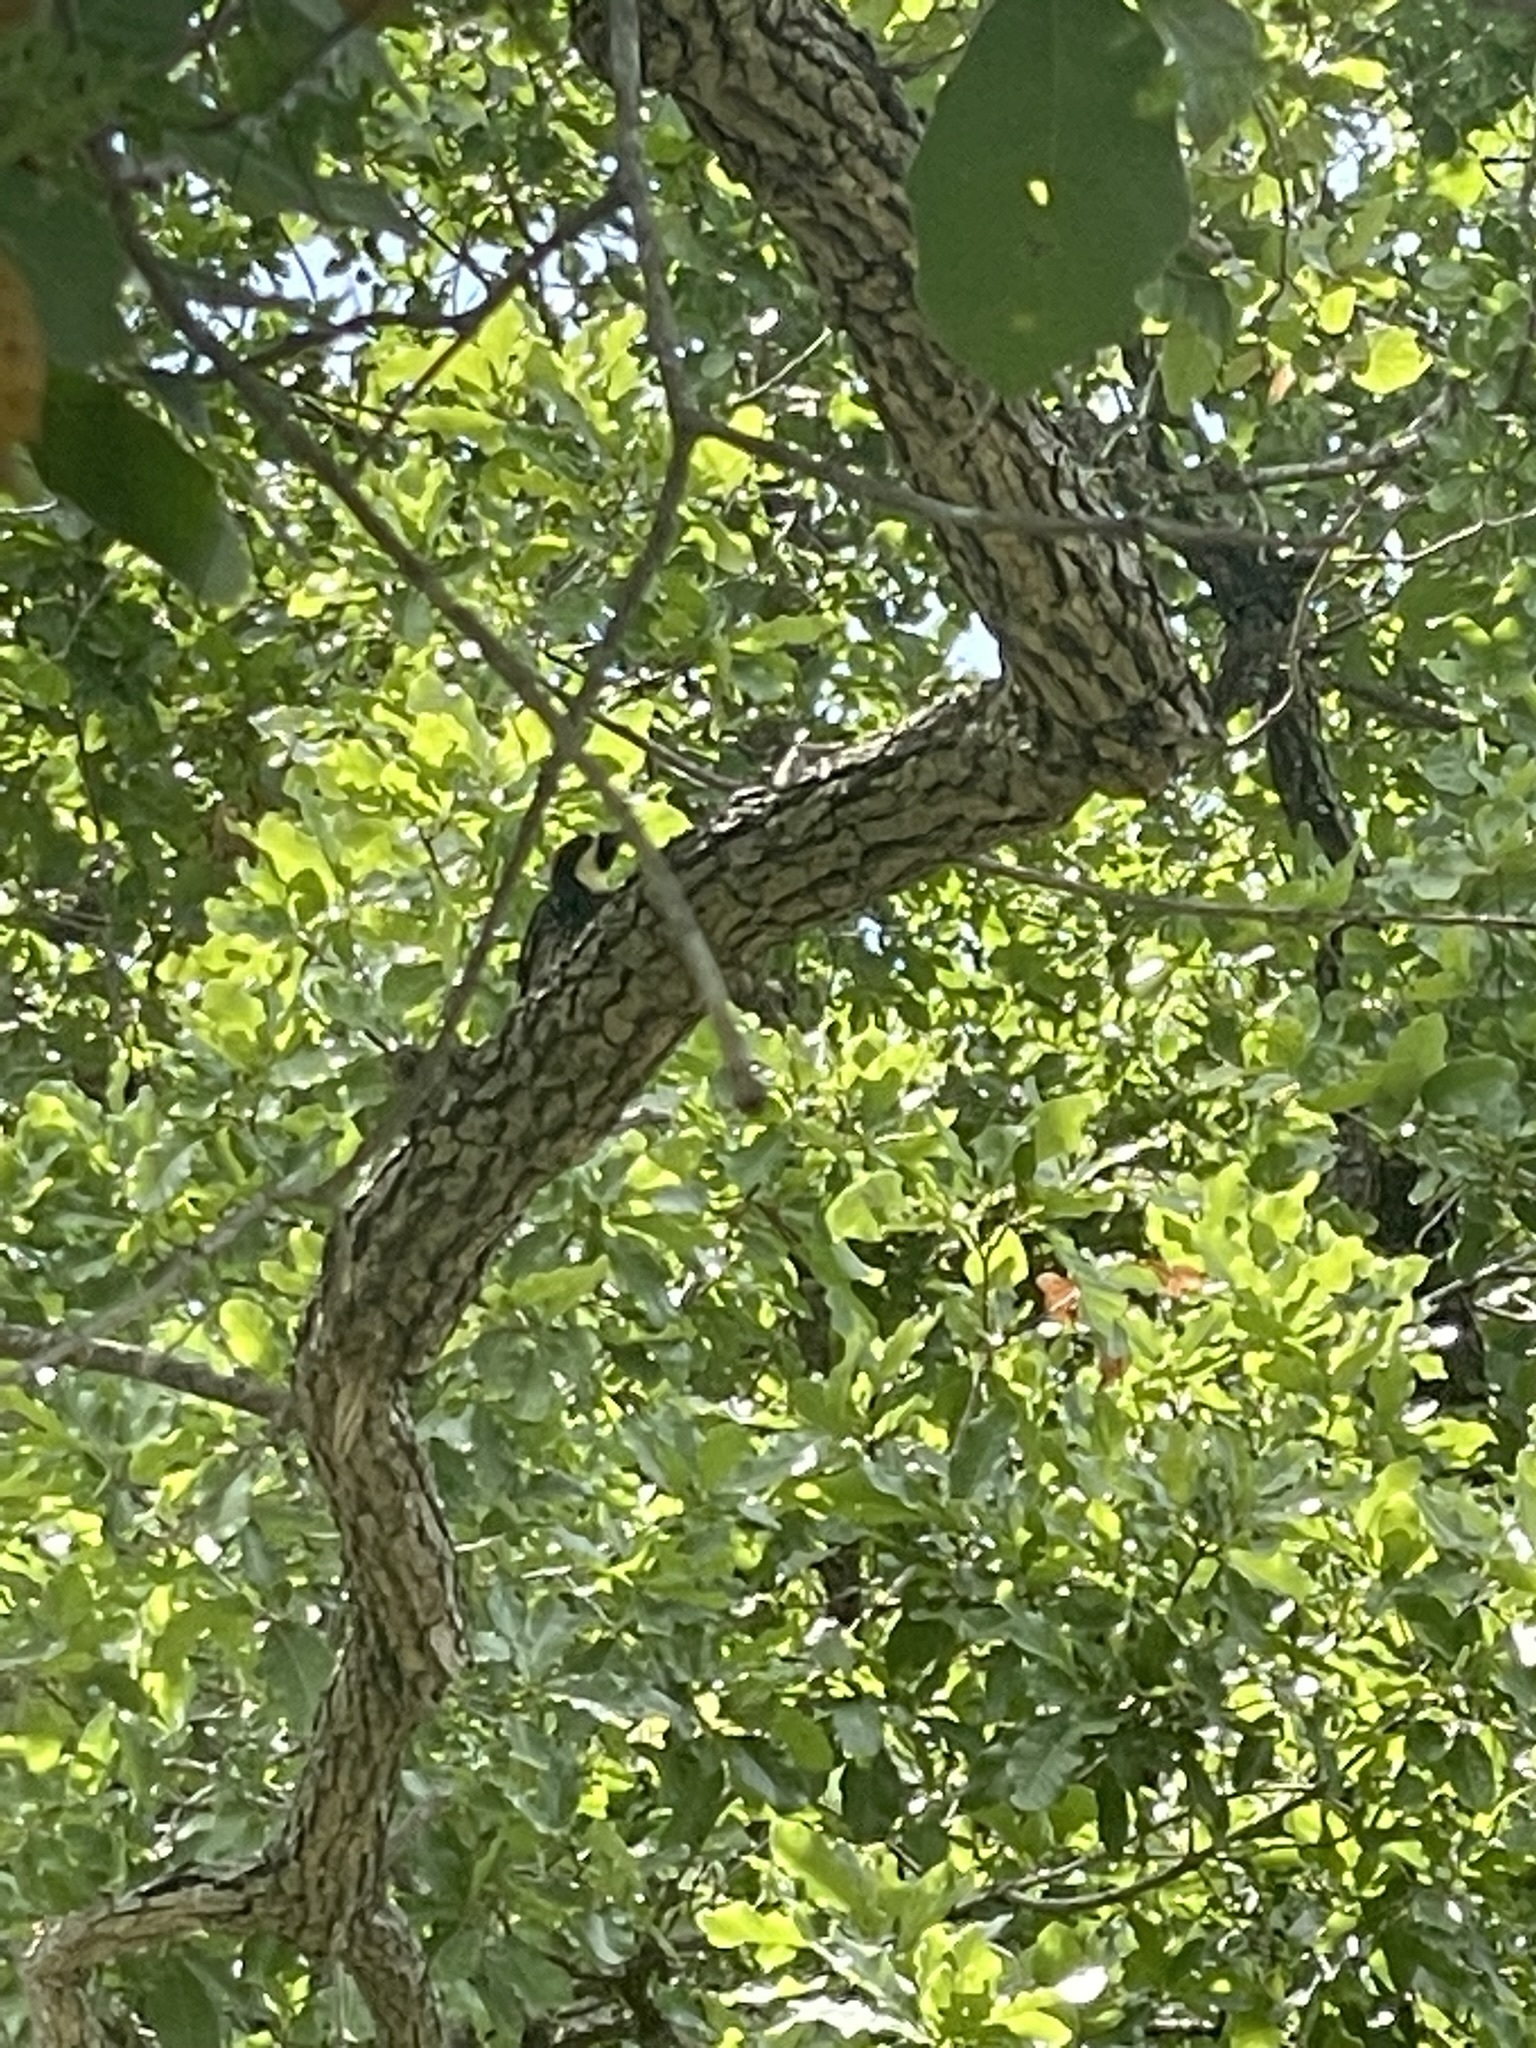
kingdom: Animalia
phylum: Chordata
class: Aves
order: Piciformes
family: Picidae
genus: Melanerpes
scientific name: Melanerpes formicivorus
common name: Acorn woodpecker
